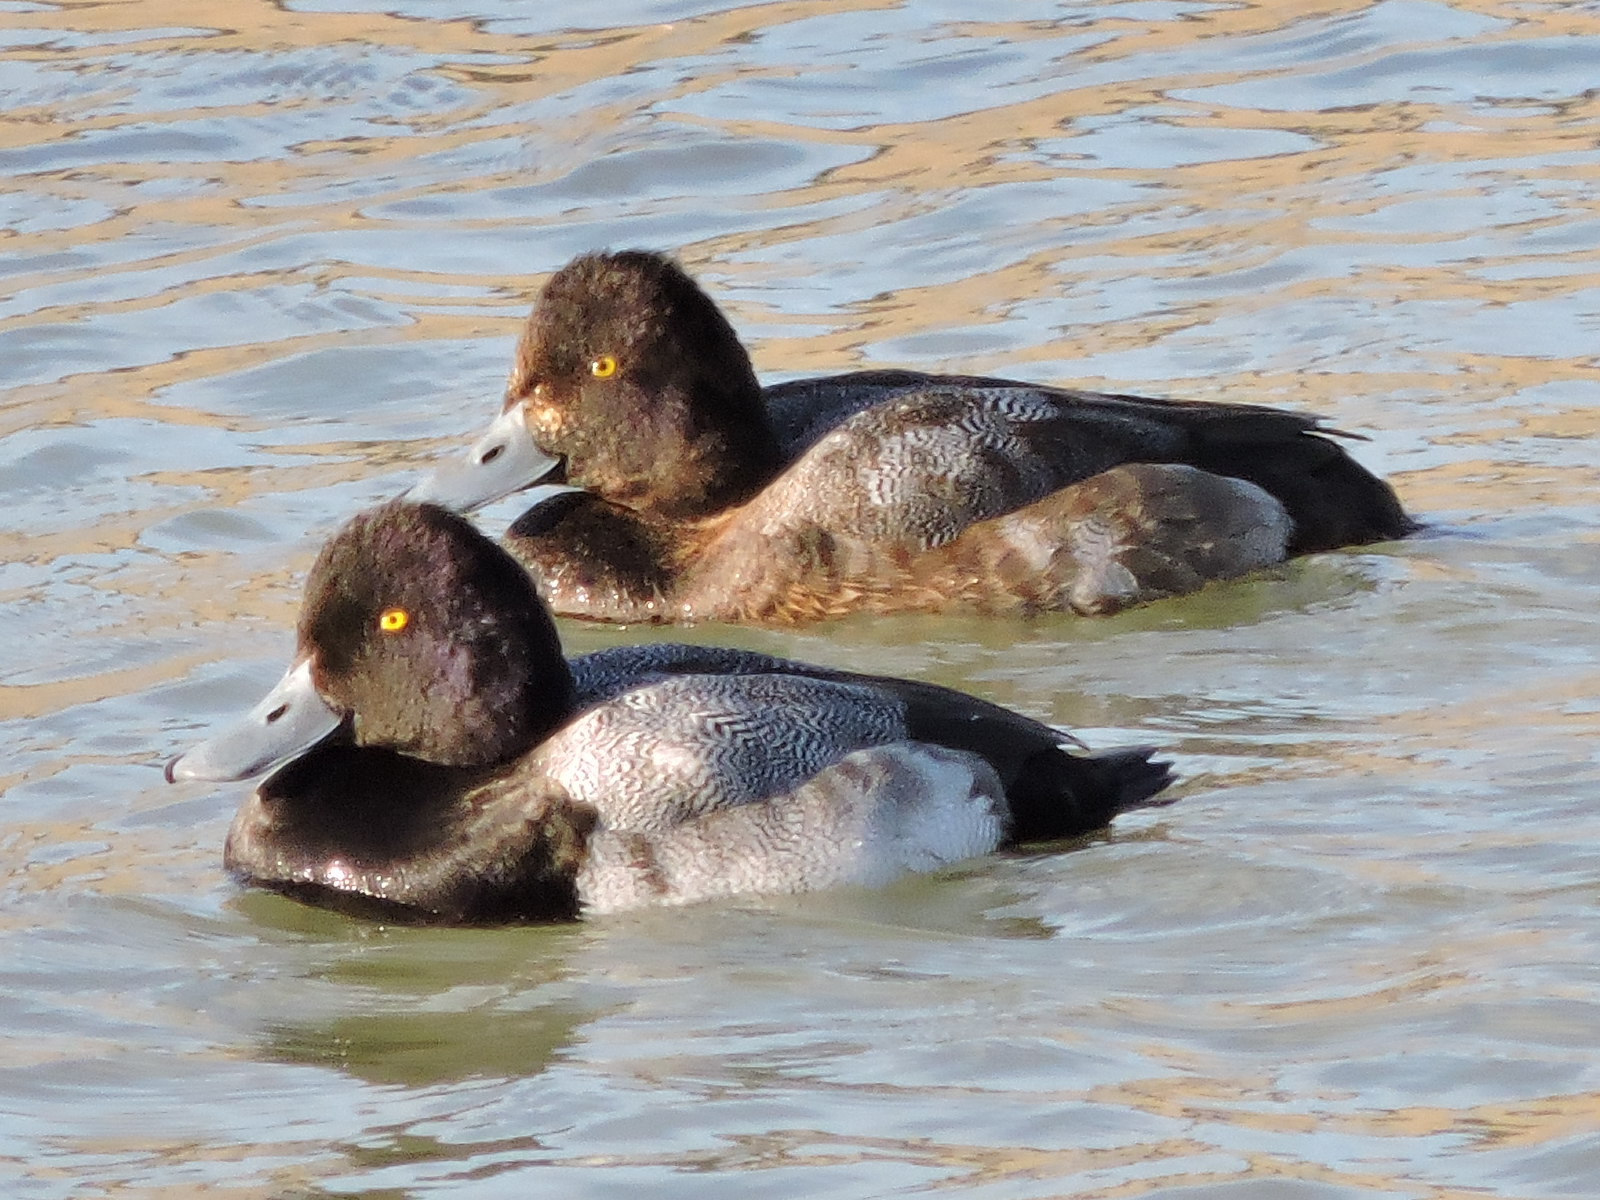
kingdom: Animalia
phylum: Chordata
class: Aves
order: Anseriformes
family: Anatidae
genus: Aythya
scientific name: Aythya affinis
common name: Lesser scaup
